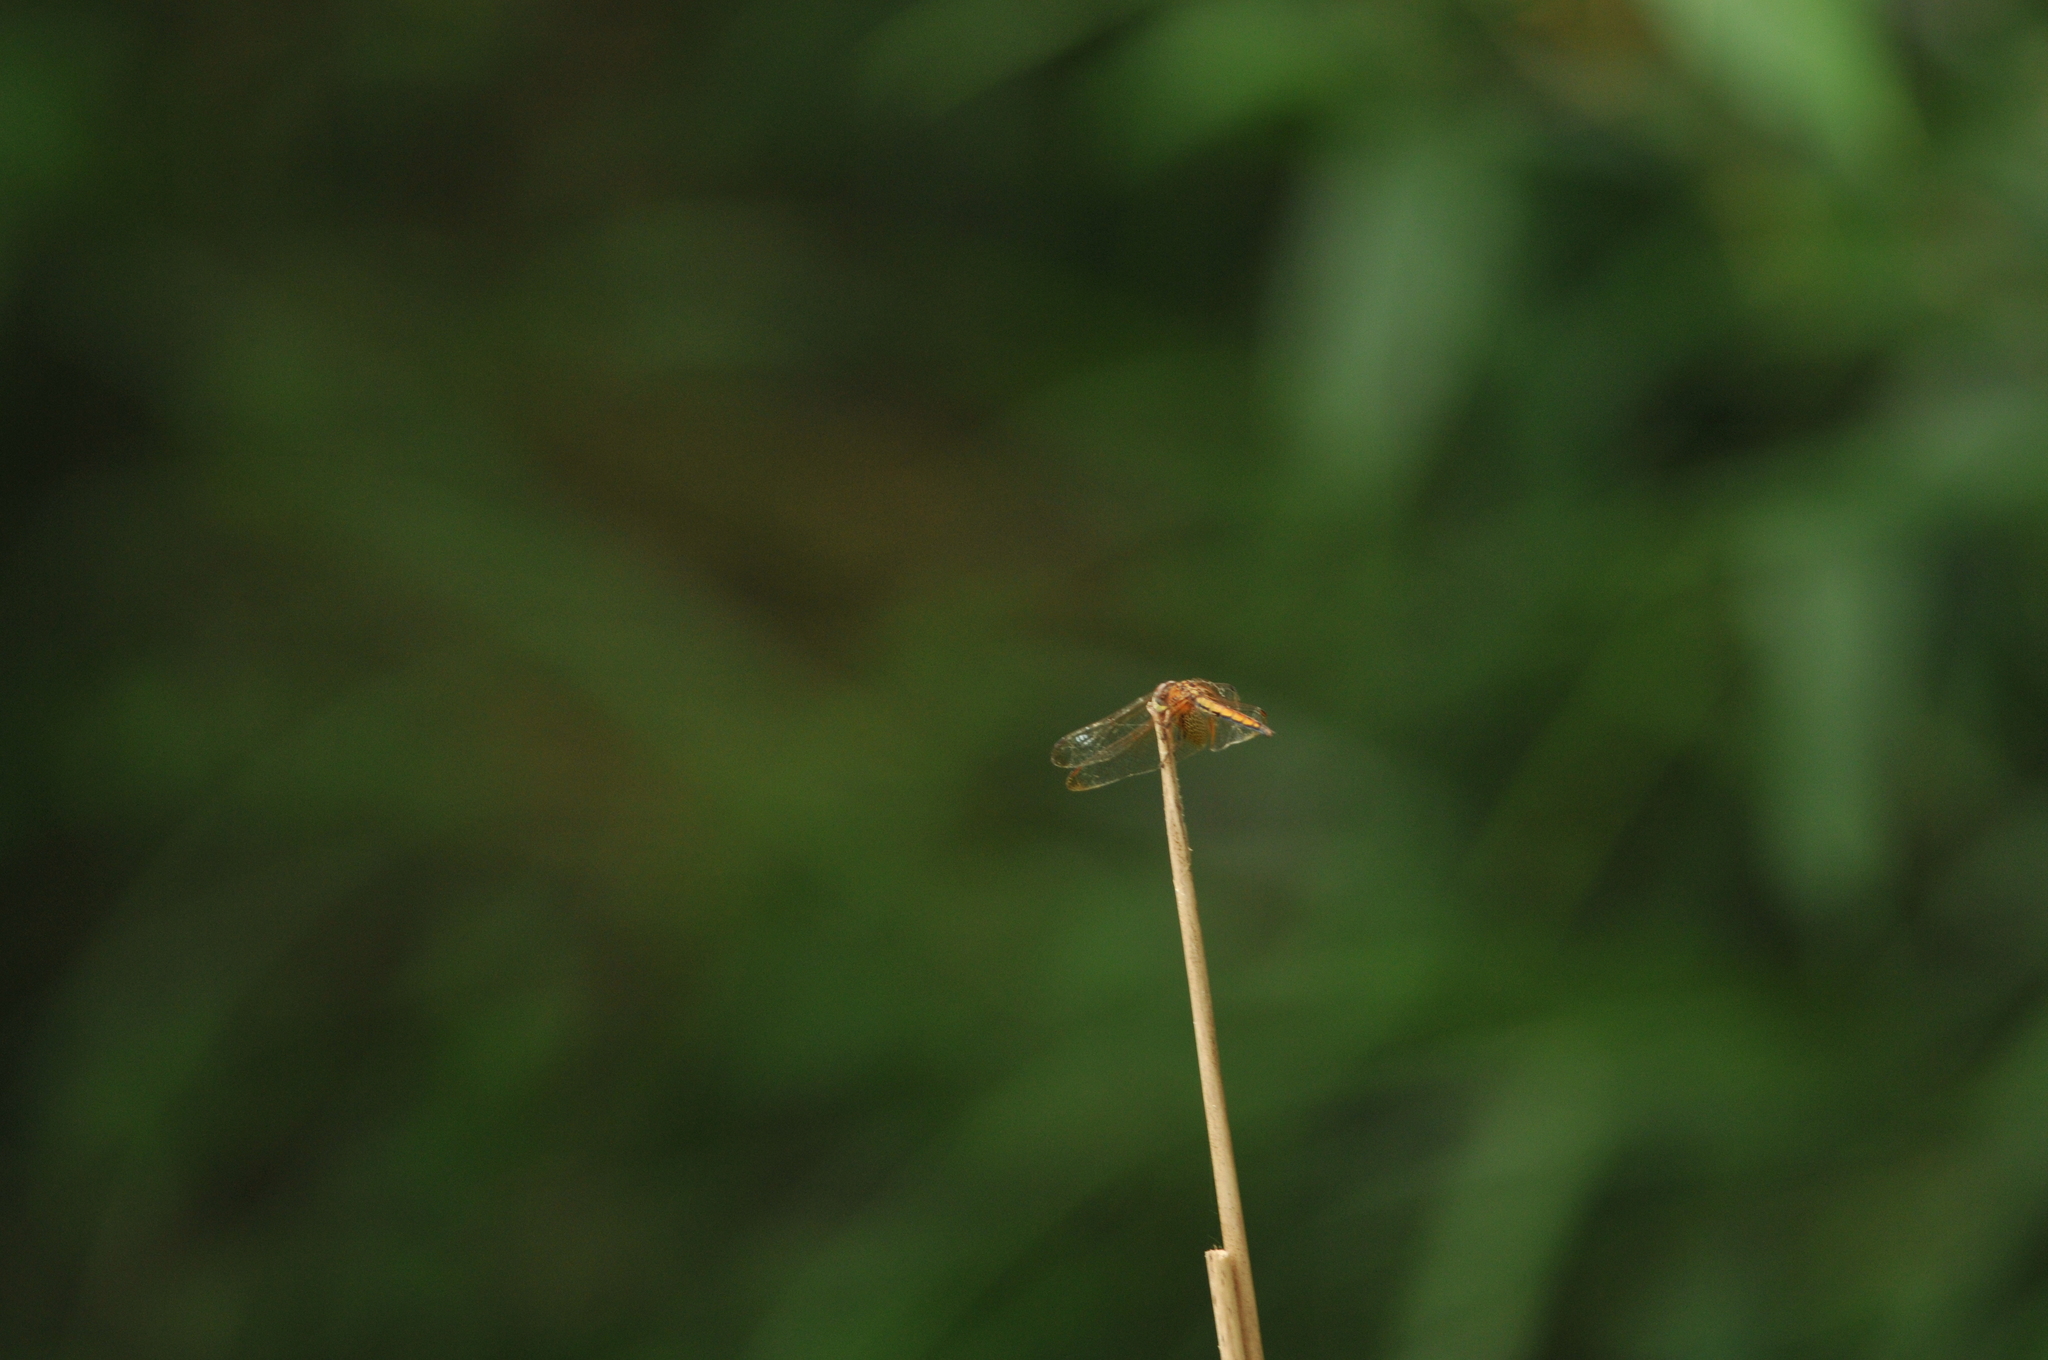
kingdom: Animalia
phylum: Arthropoda
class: Insecta
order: Odonata
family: Libellulidae
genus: Trithemis
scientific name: Trithemis aurora
